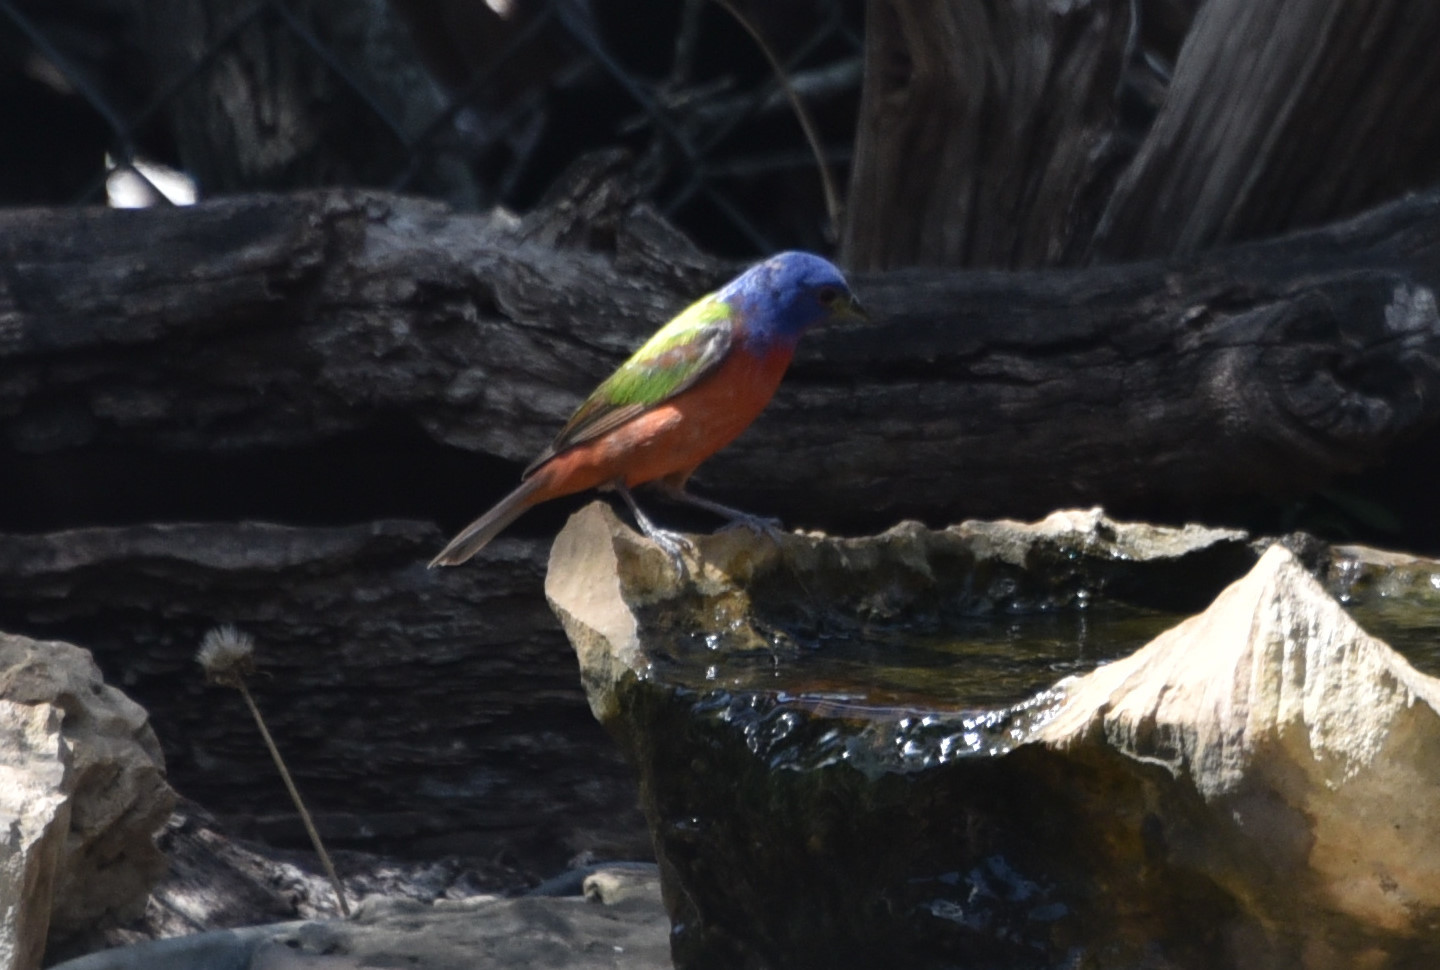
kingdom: Animalia
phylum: Chordata
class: Aves
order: Passeriformes
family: Cardinalidae
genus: Passerina
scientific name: Passerina ciris
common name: Painted bunting
